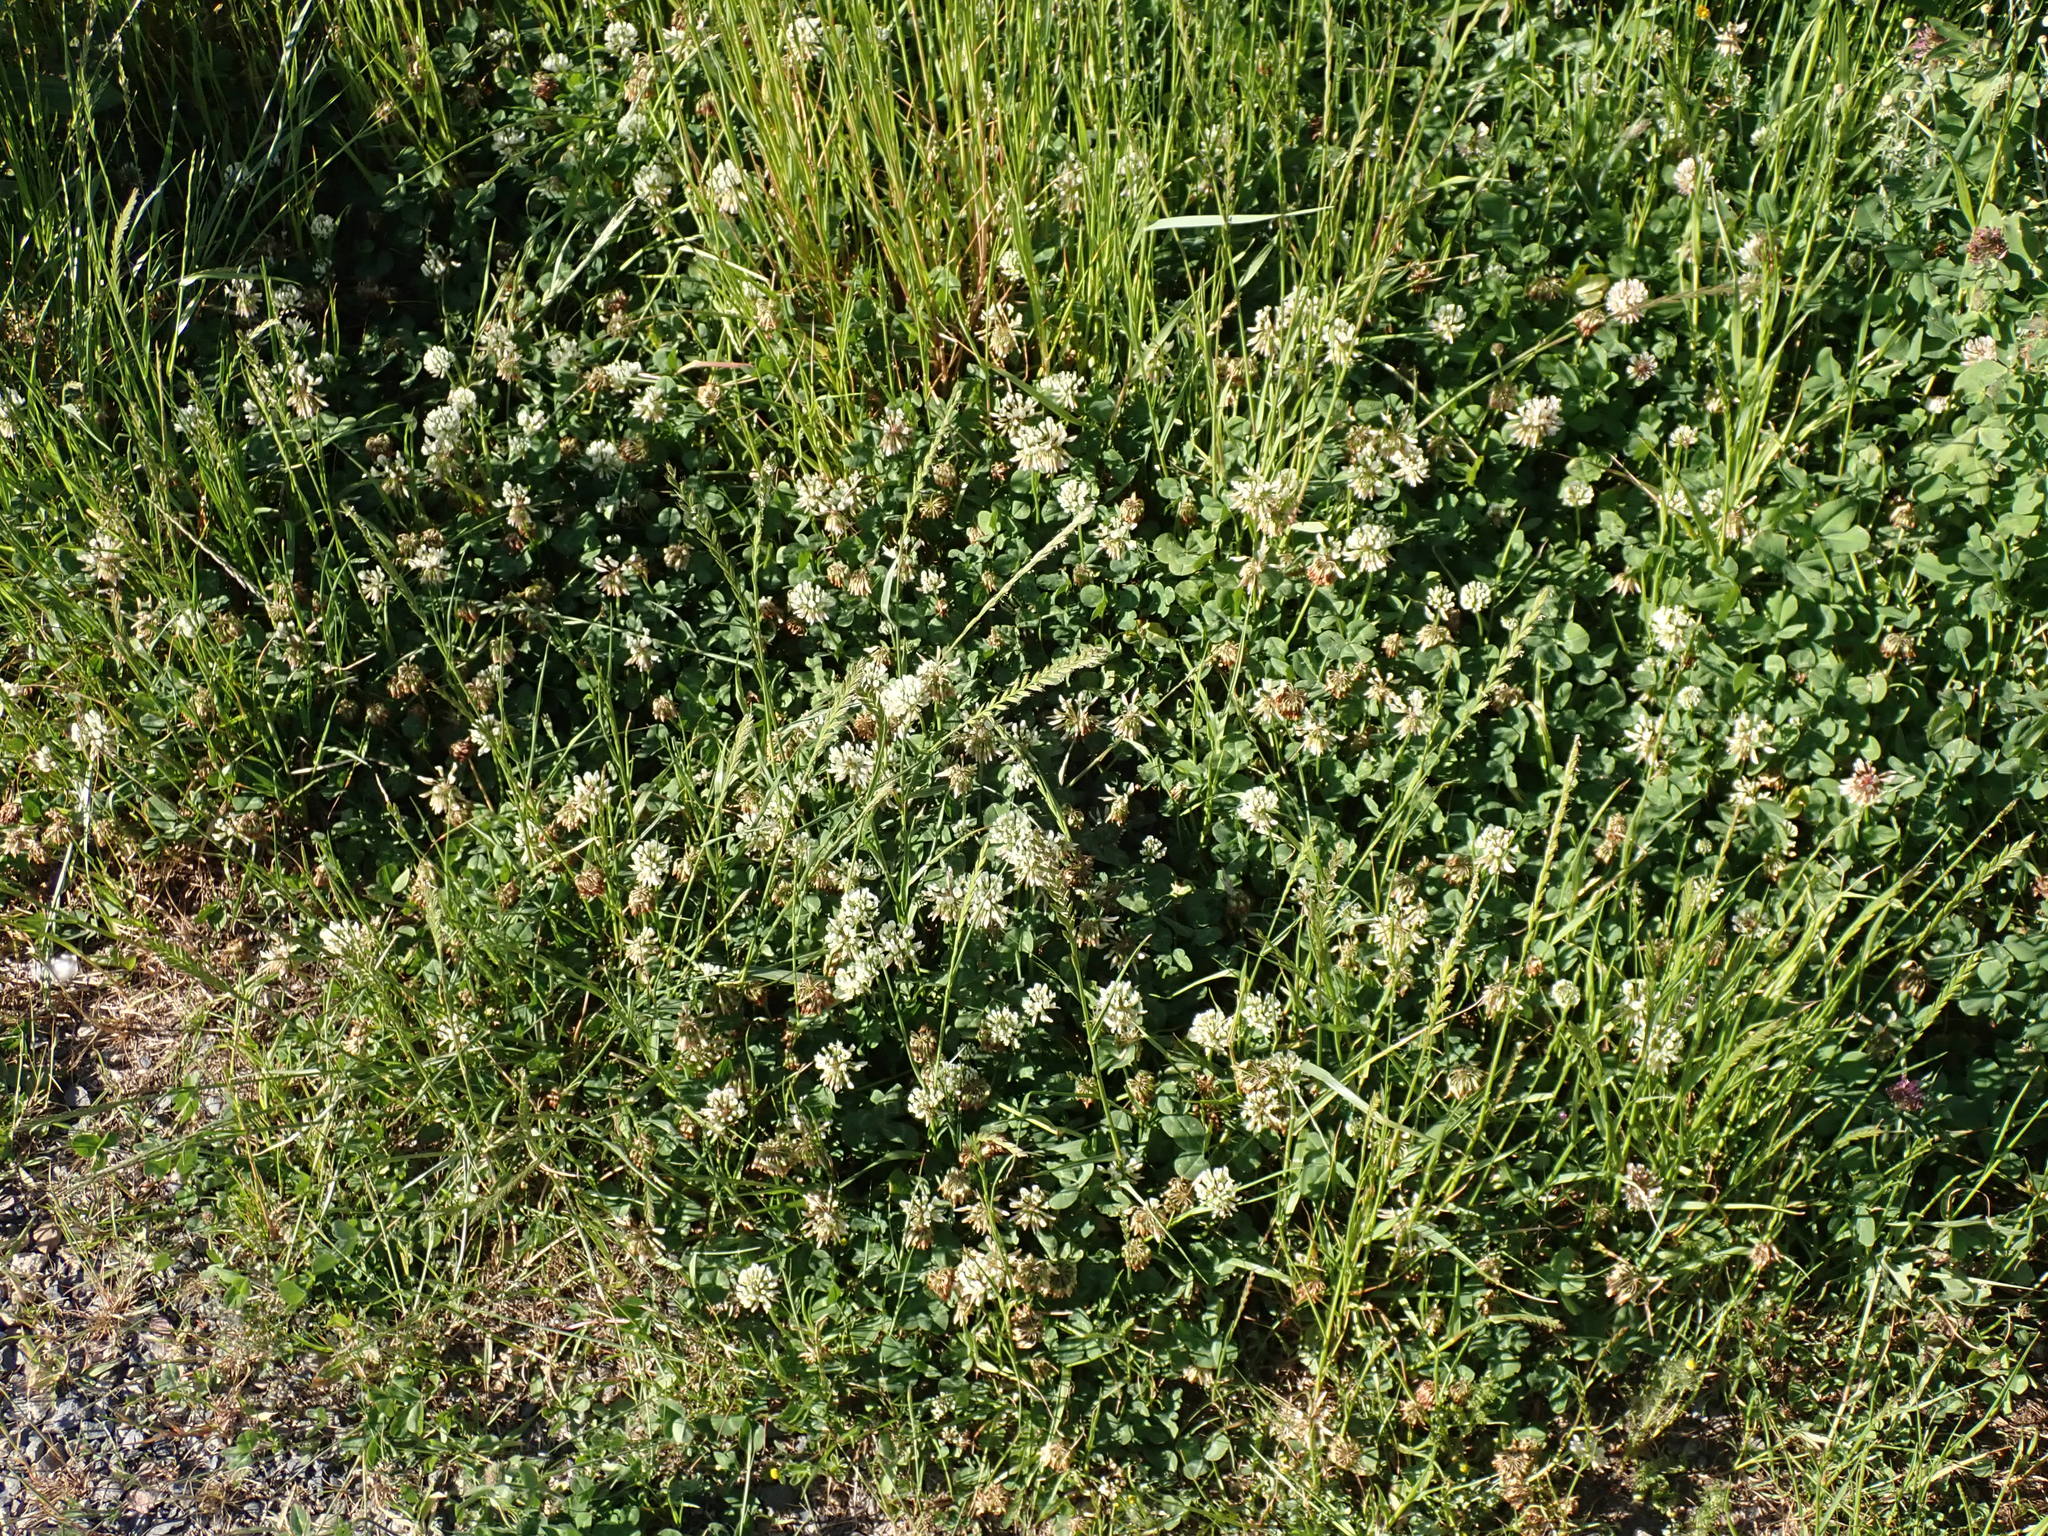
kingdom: Plantae
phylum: Tracheophyta
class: Magnoliopsida
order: Fabales
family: Fabaceae
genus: Trifolium
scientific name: Trifolium repens
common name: White clover
